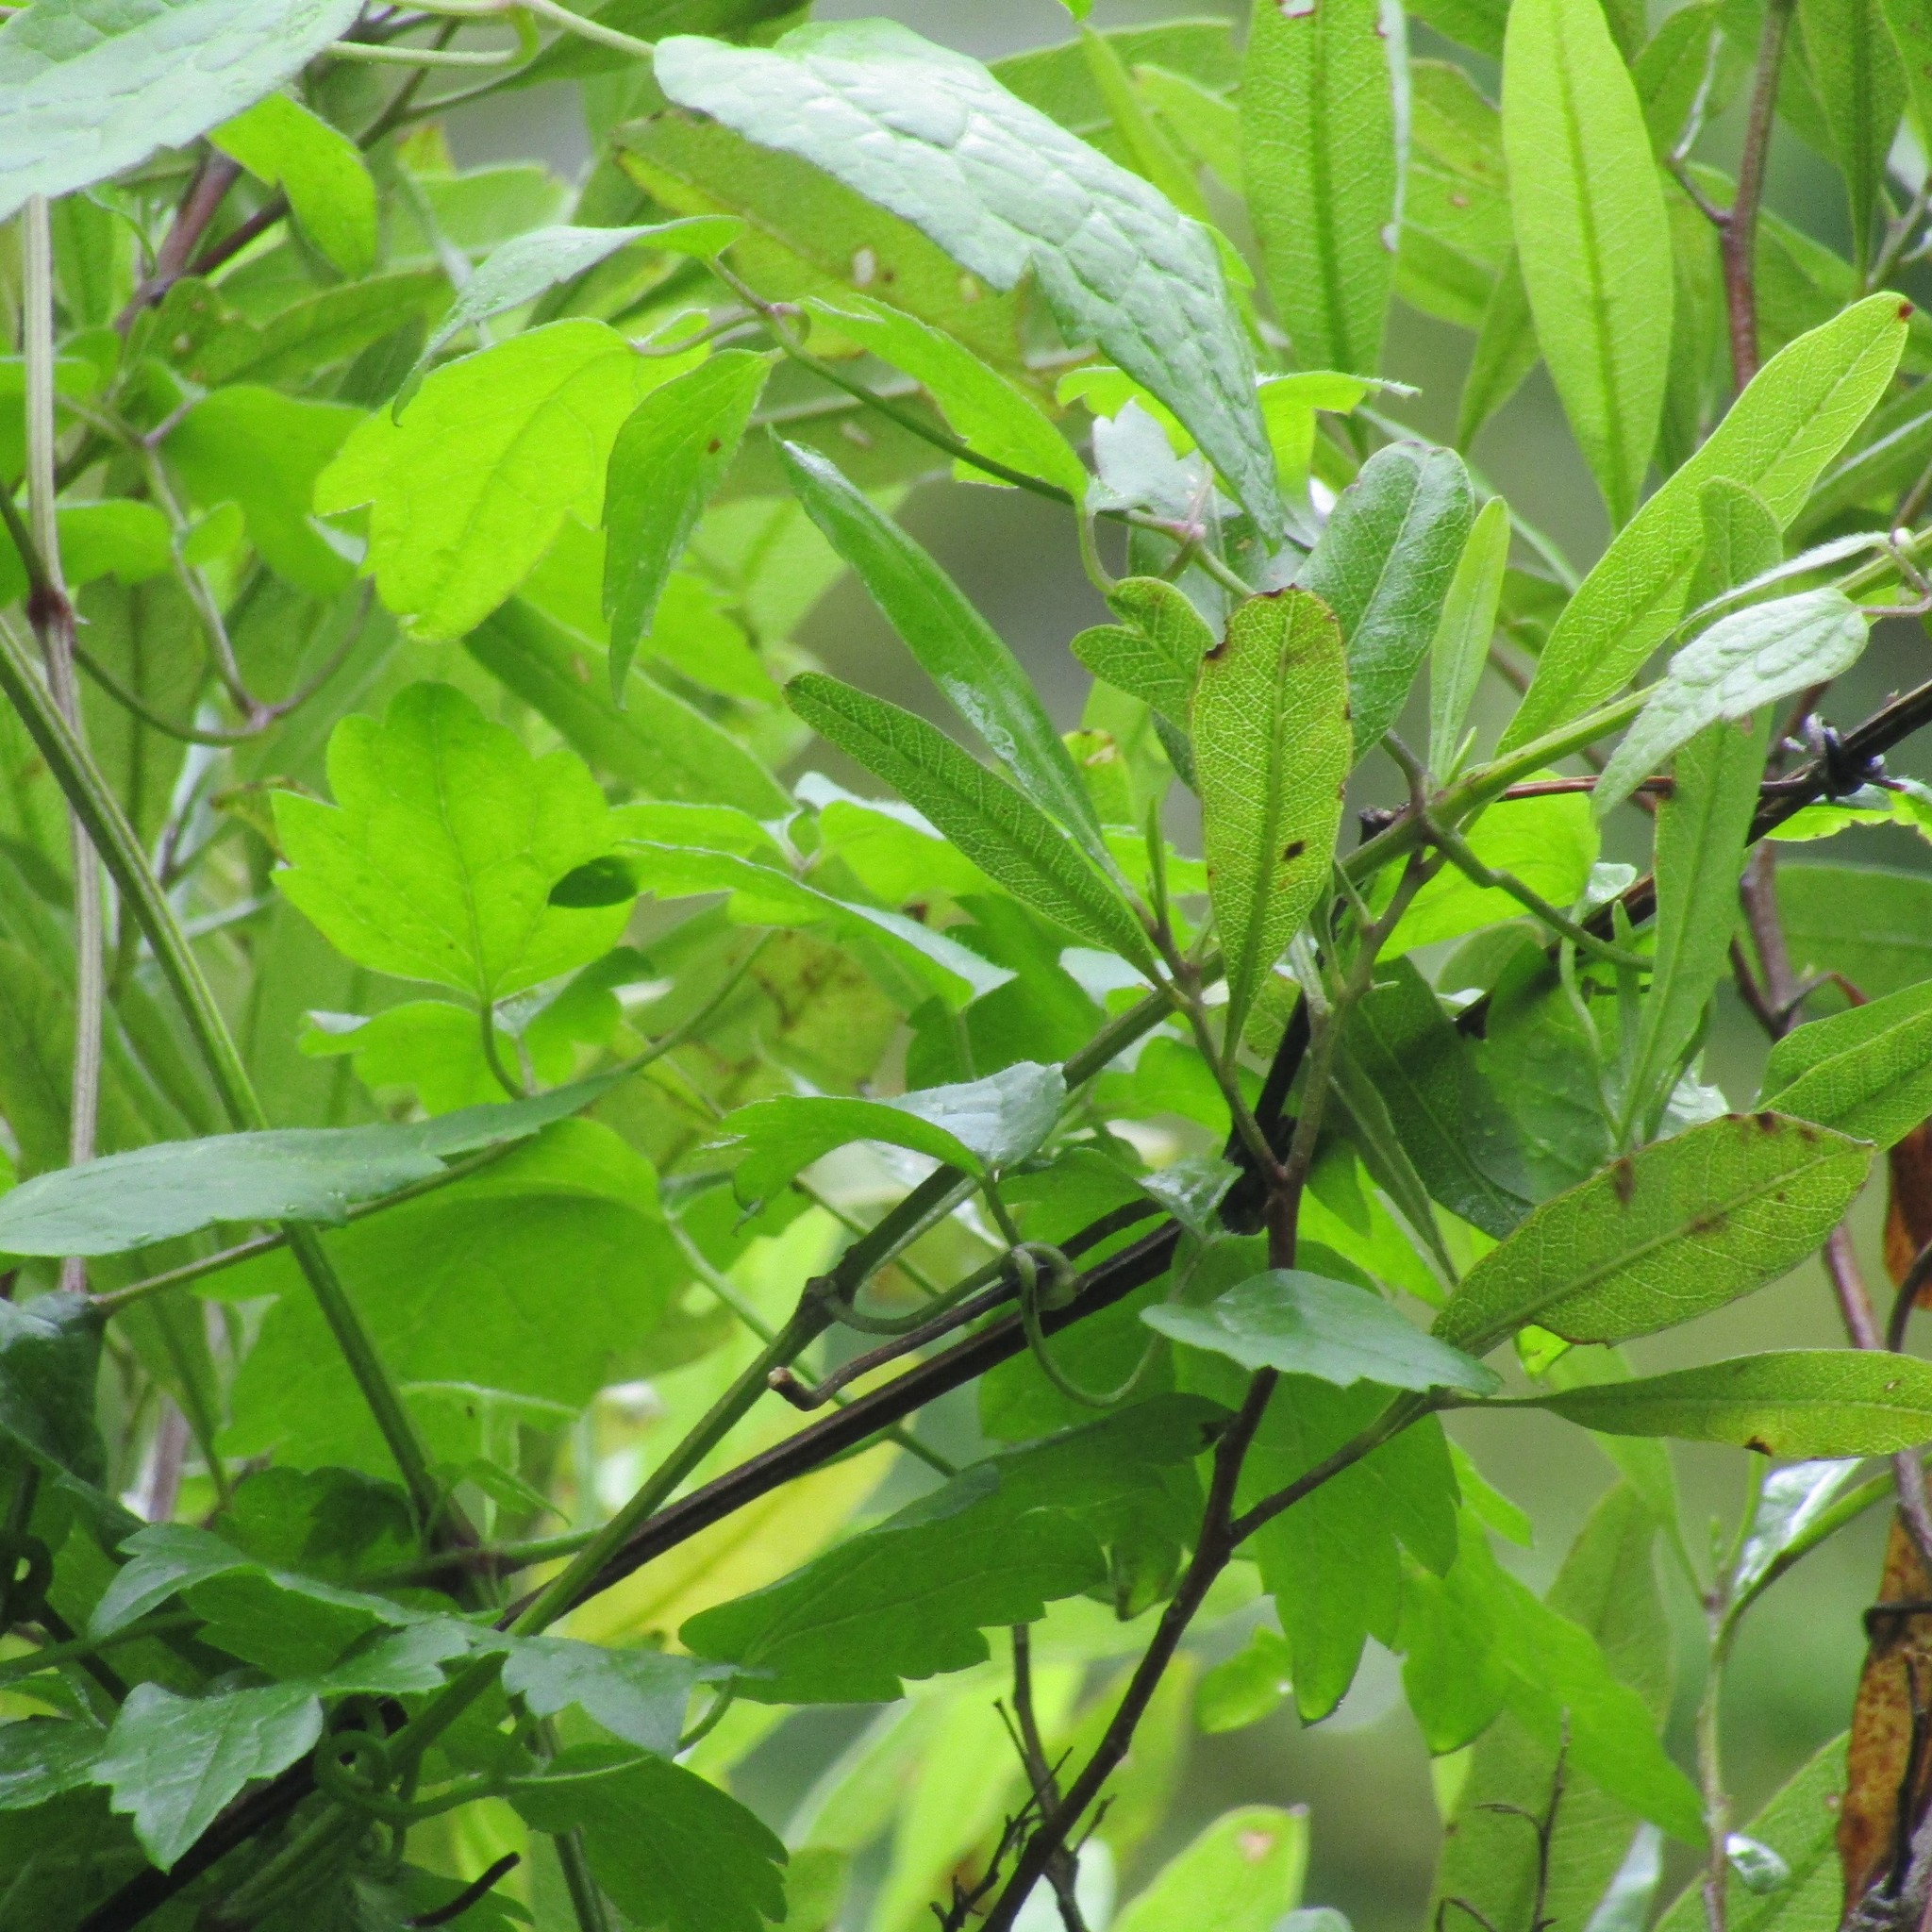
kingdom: Plantae
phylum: Tracheophyta
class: Magnoliopsida
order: Sapindales
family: Sapindaceae
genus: Dodonaea
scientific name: Dodonaea viscosa
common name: Hopbush
